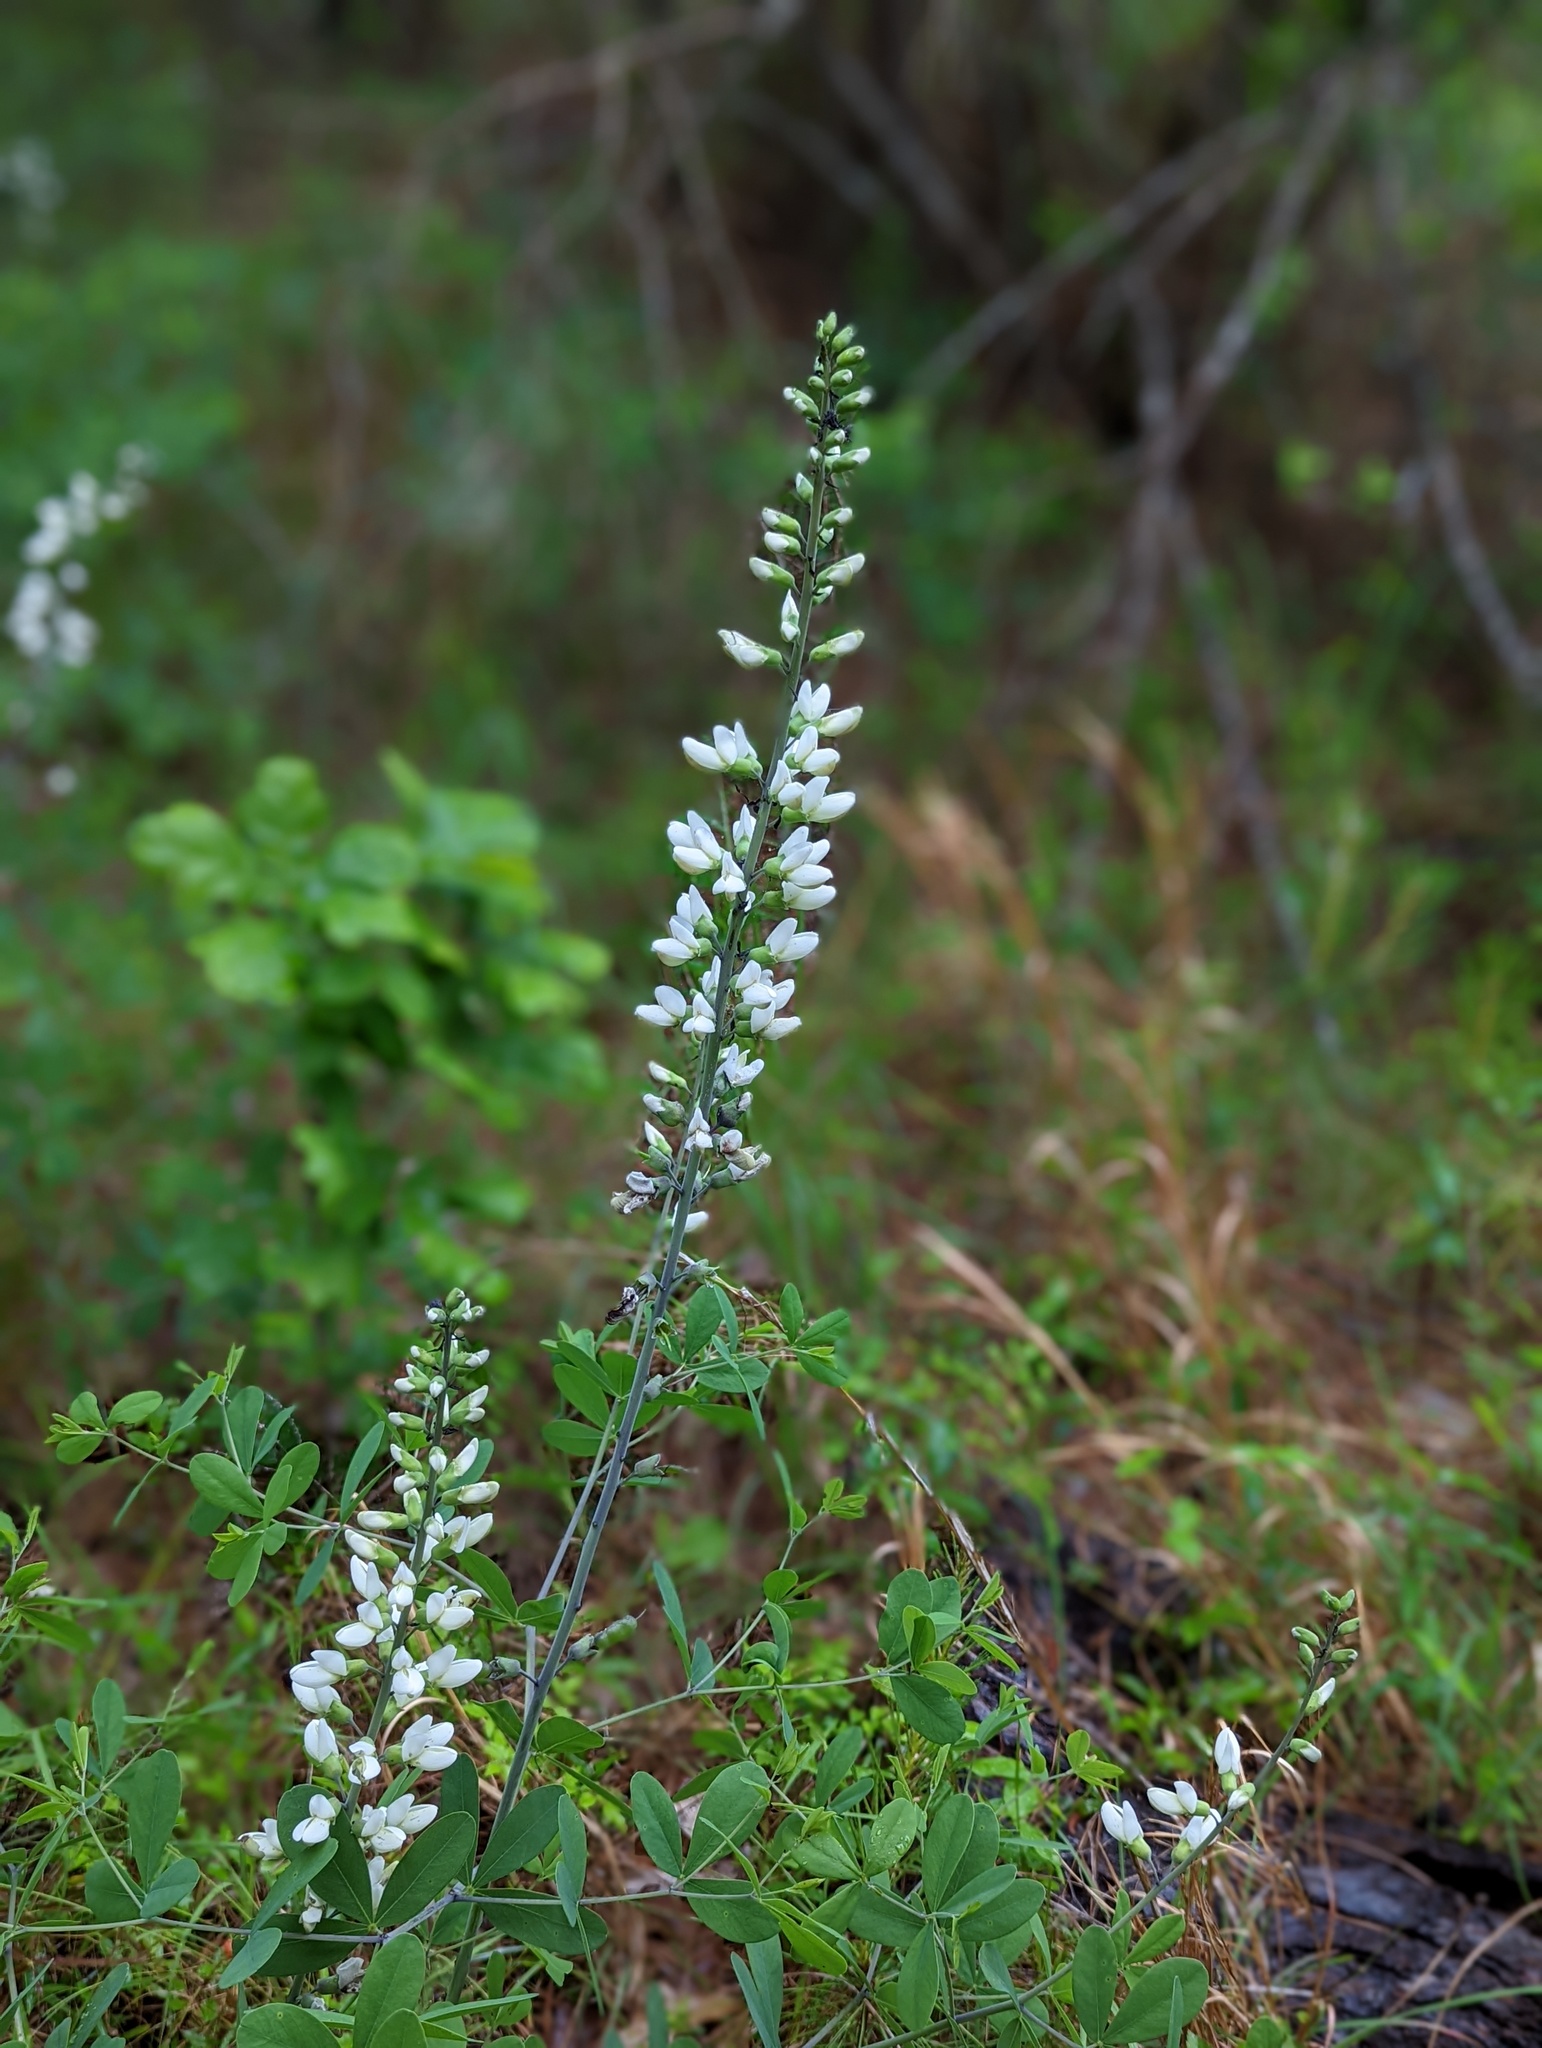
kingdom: Plantae
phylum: Tracheophyta
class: Magnoliopsida
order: Fabales
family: Fabaceae
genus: Baptisia
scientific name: Baptisia alba
